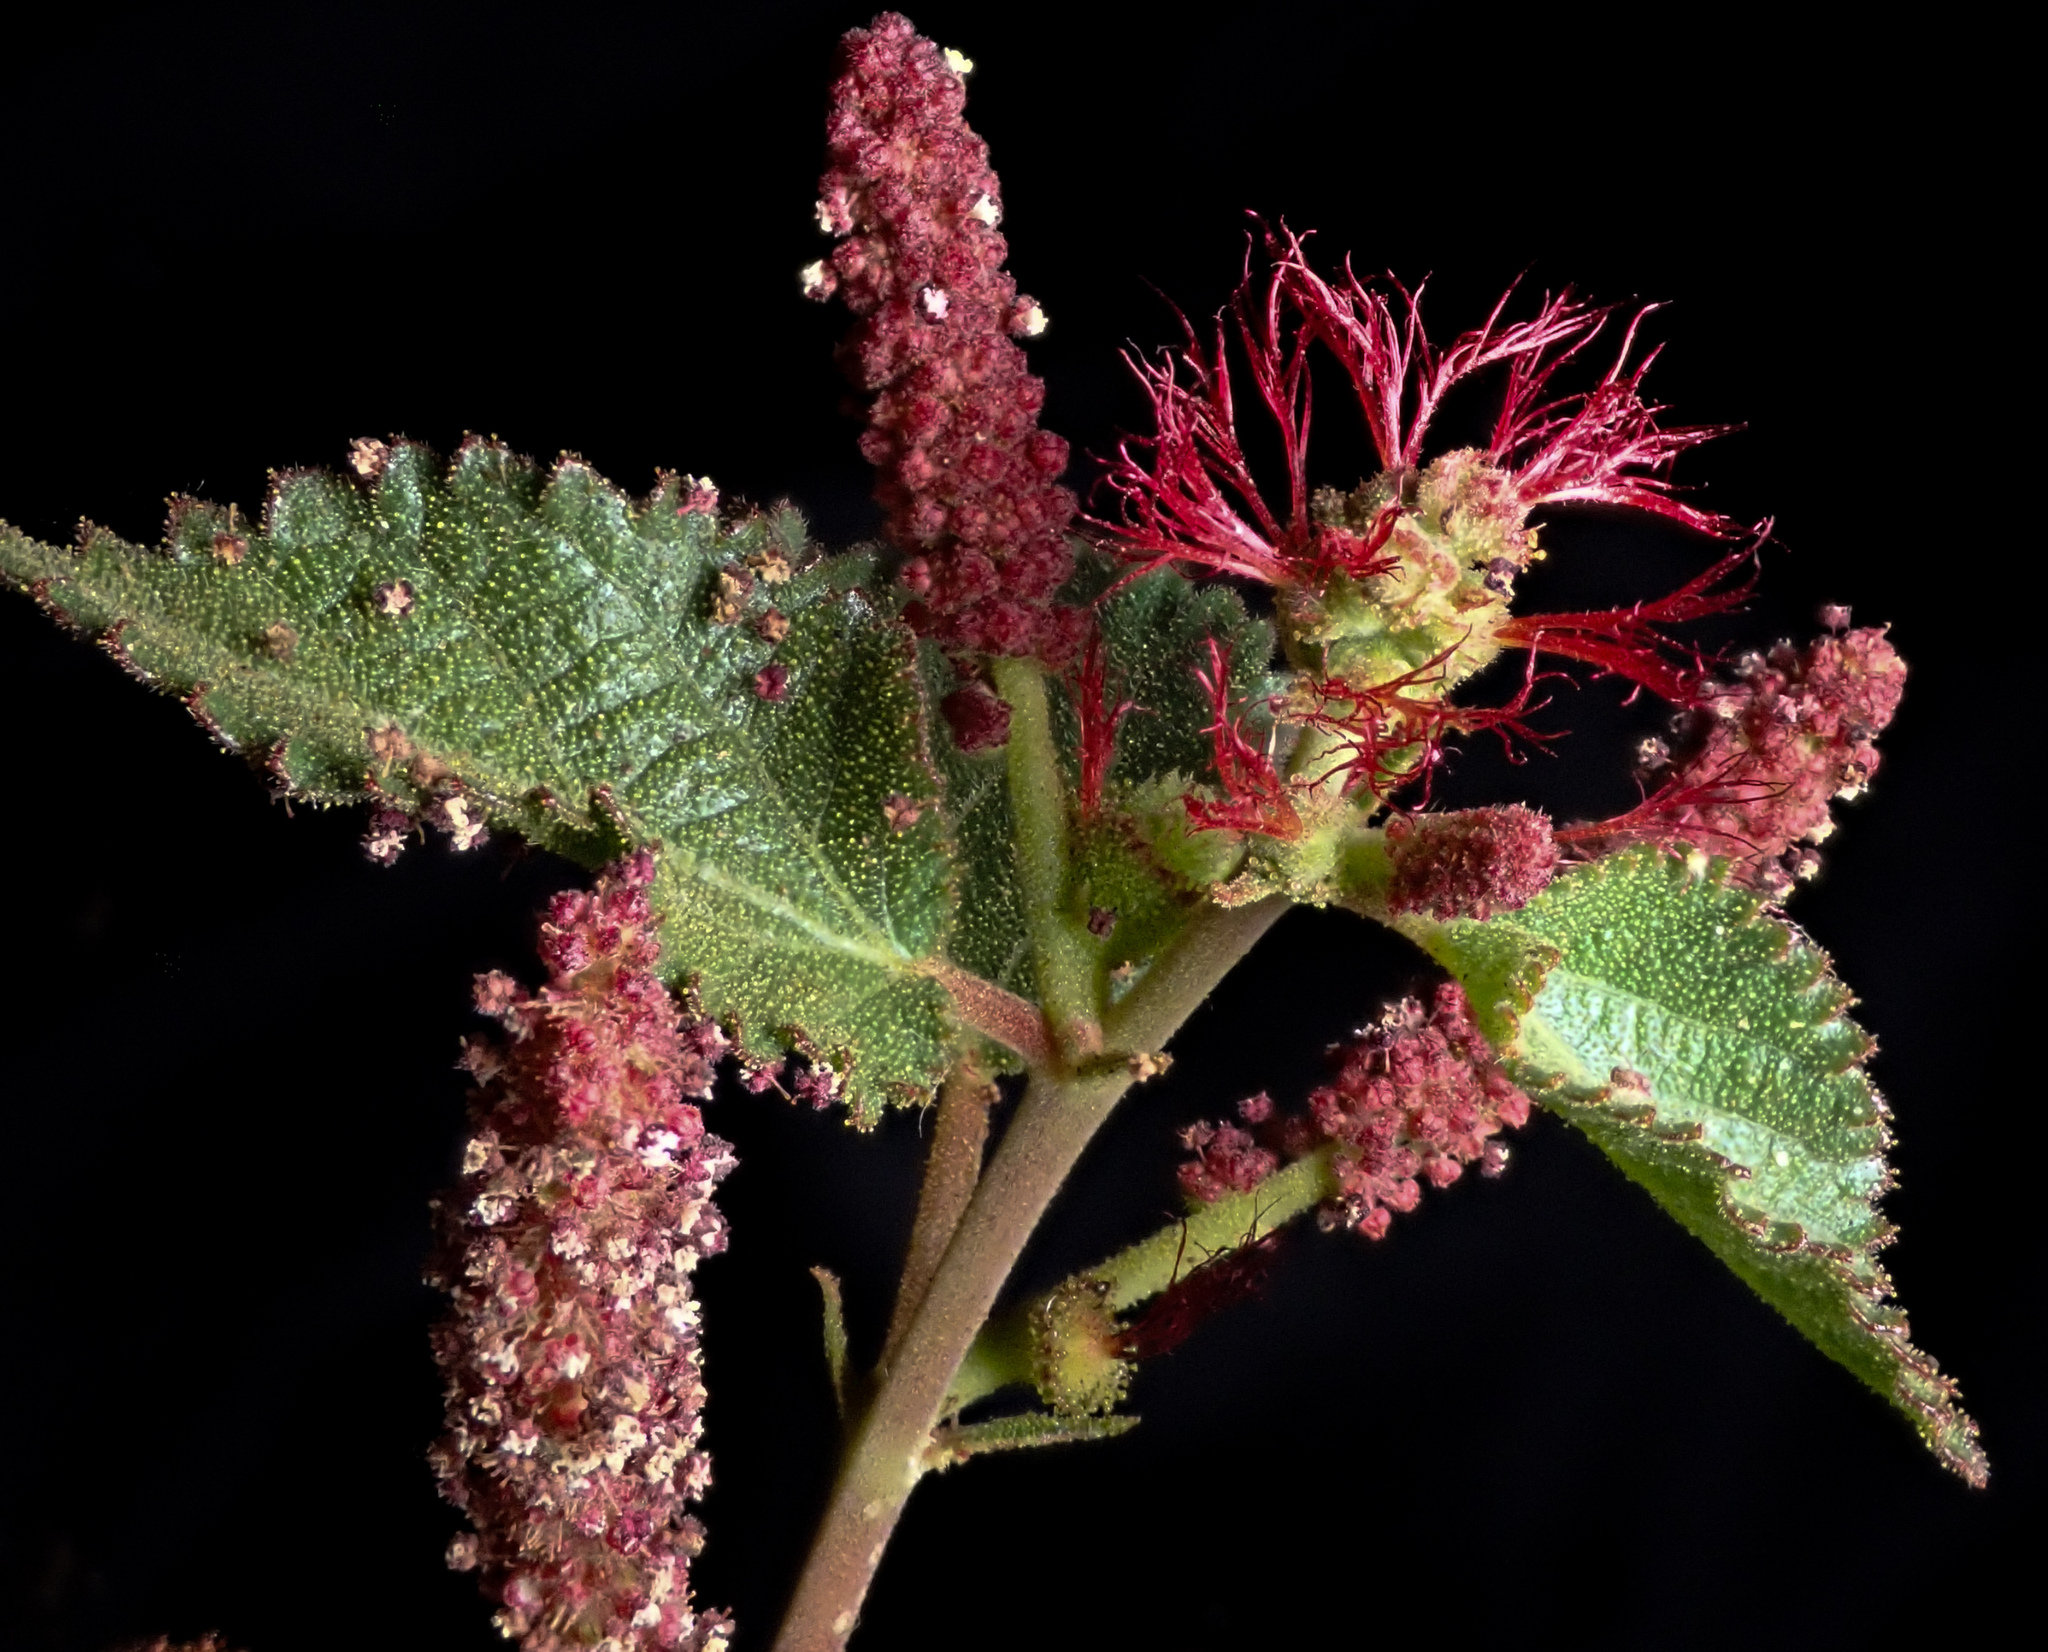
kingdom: Plantae
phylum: Tracheophyta
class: Magnoliopsida
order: Malpighiales
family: Euphorbiaceae
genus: Acalypha
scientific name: Acalypha californica
